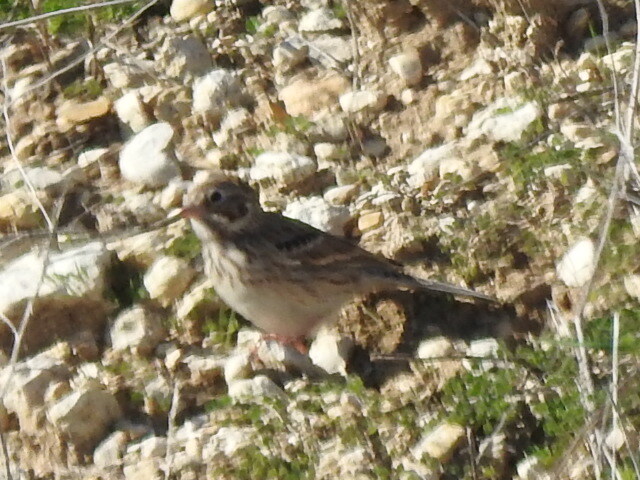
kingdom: Animalia
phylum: Chordata
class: Aves
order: Passeriformes
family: Passerellidae
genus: Pooecetes
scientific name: Pooecetes gramineus
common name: Vesper sparrow
